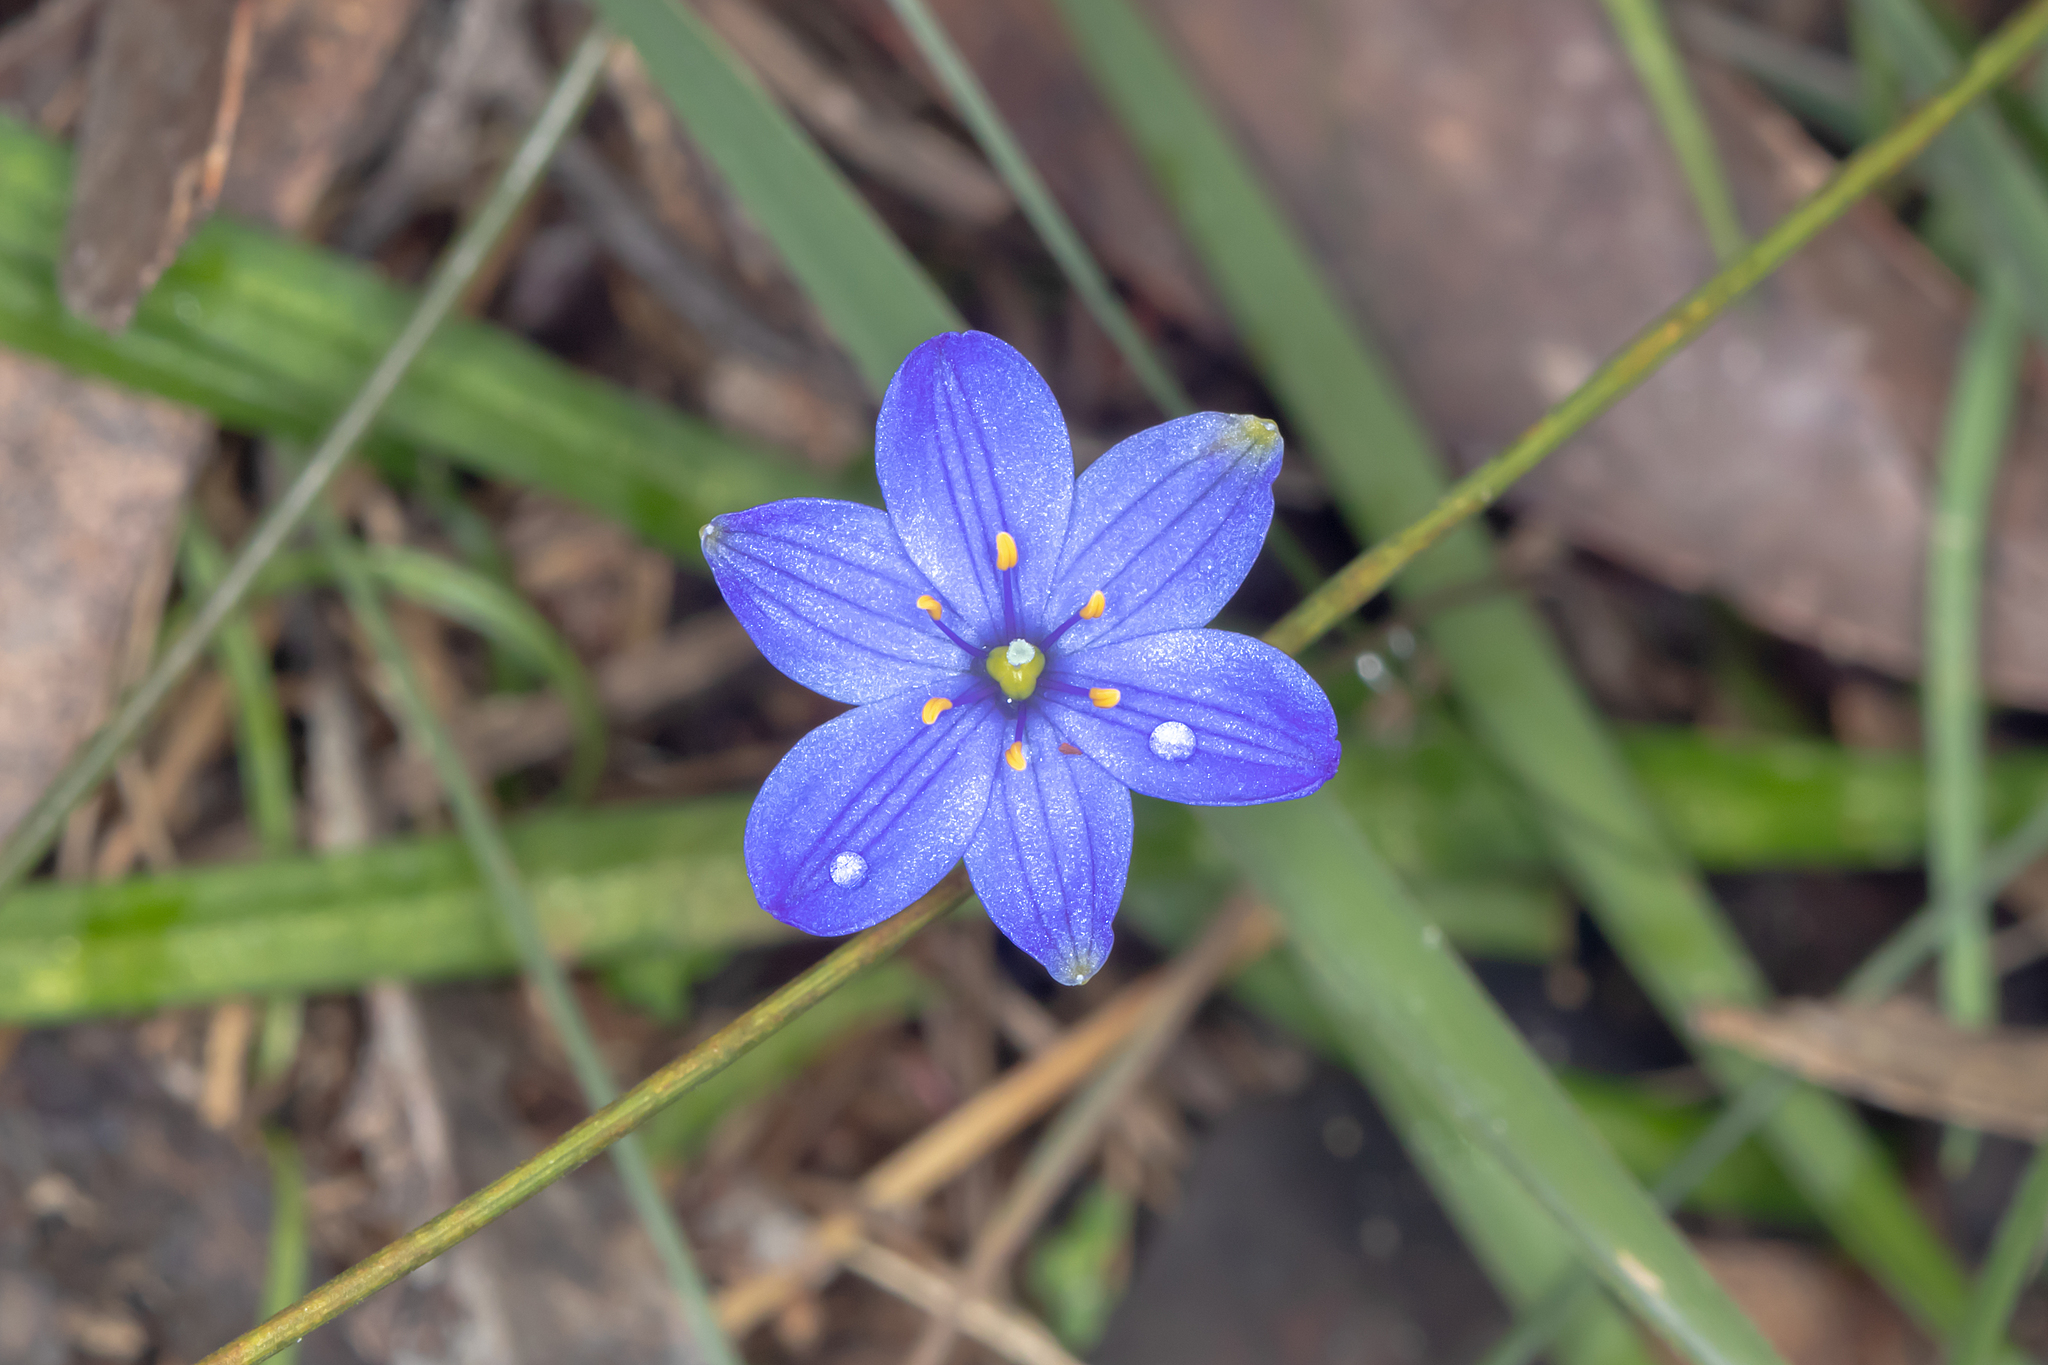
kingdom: Plantae
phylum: Tracheophyta
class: Liliopsida
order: Asparagales
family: Asphodelaceae
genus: Chamaescilla
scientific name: Chamaescilla corymbosa
